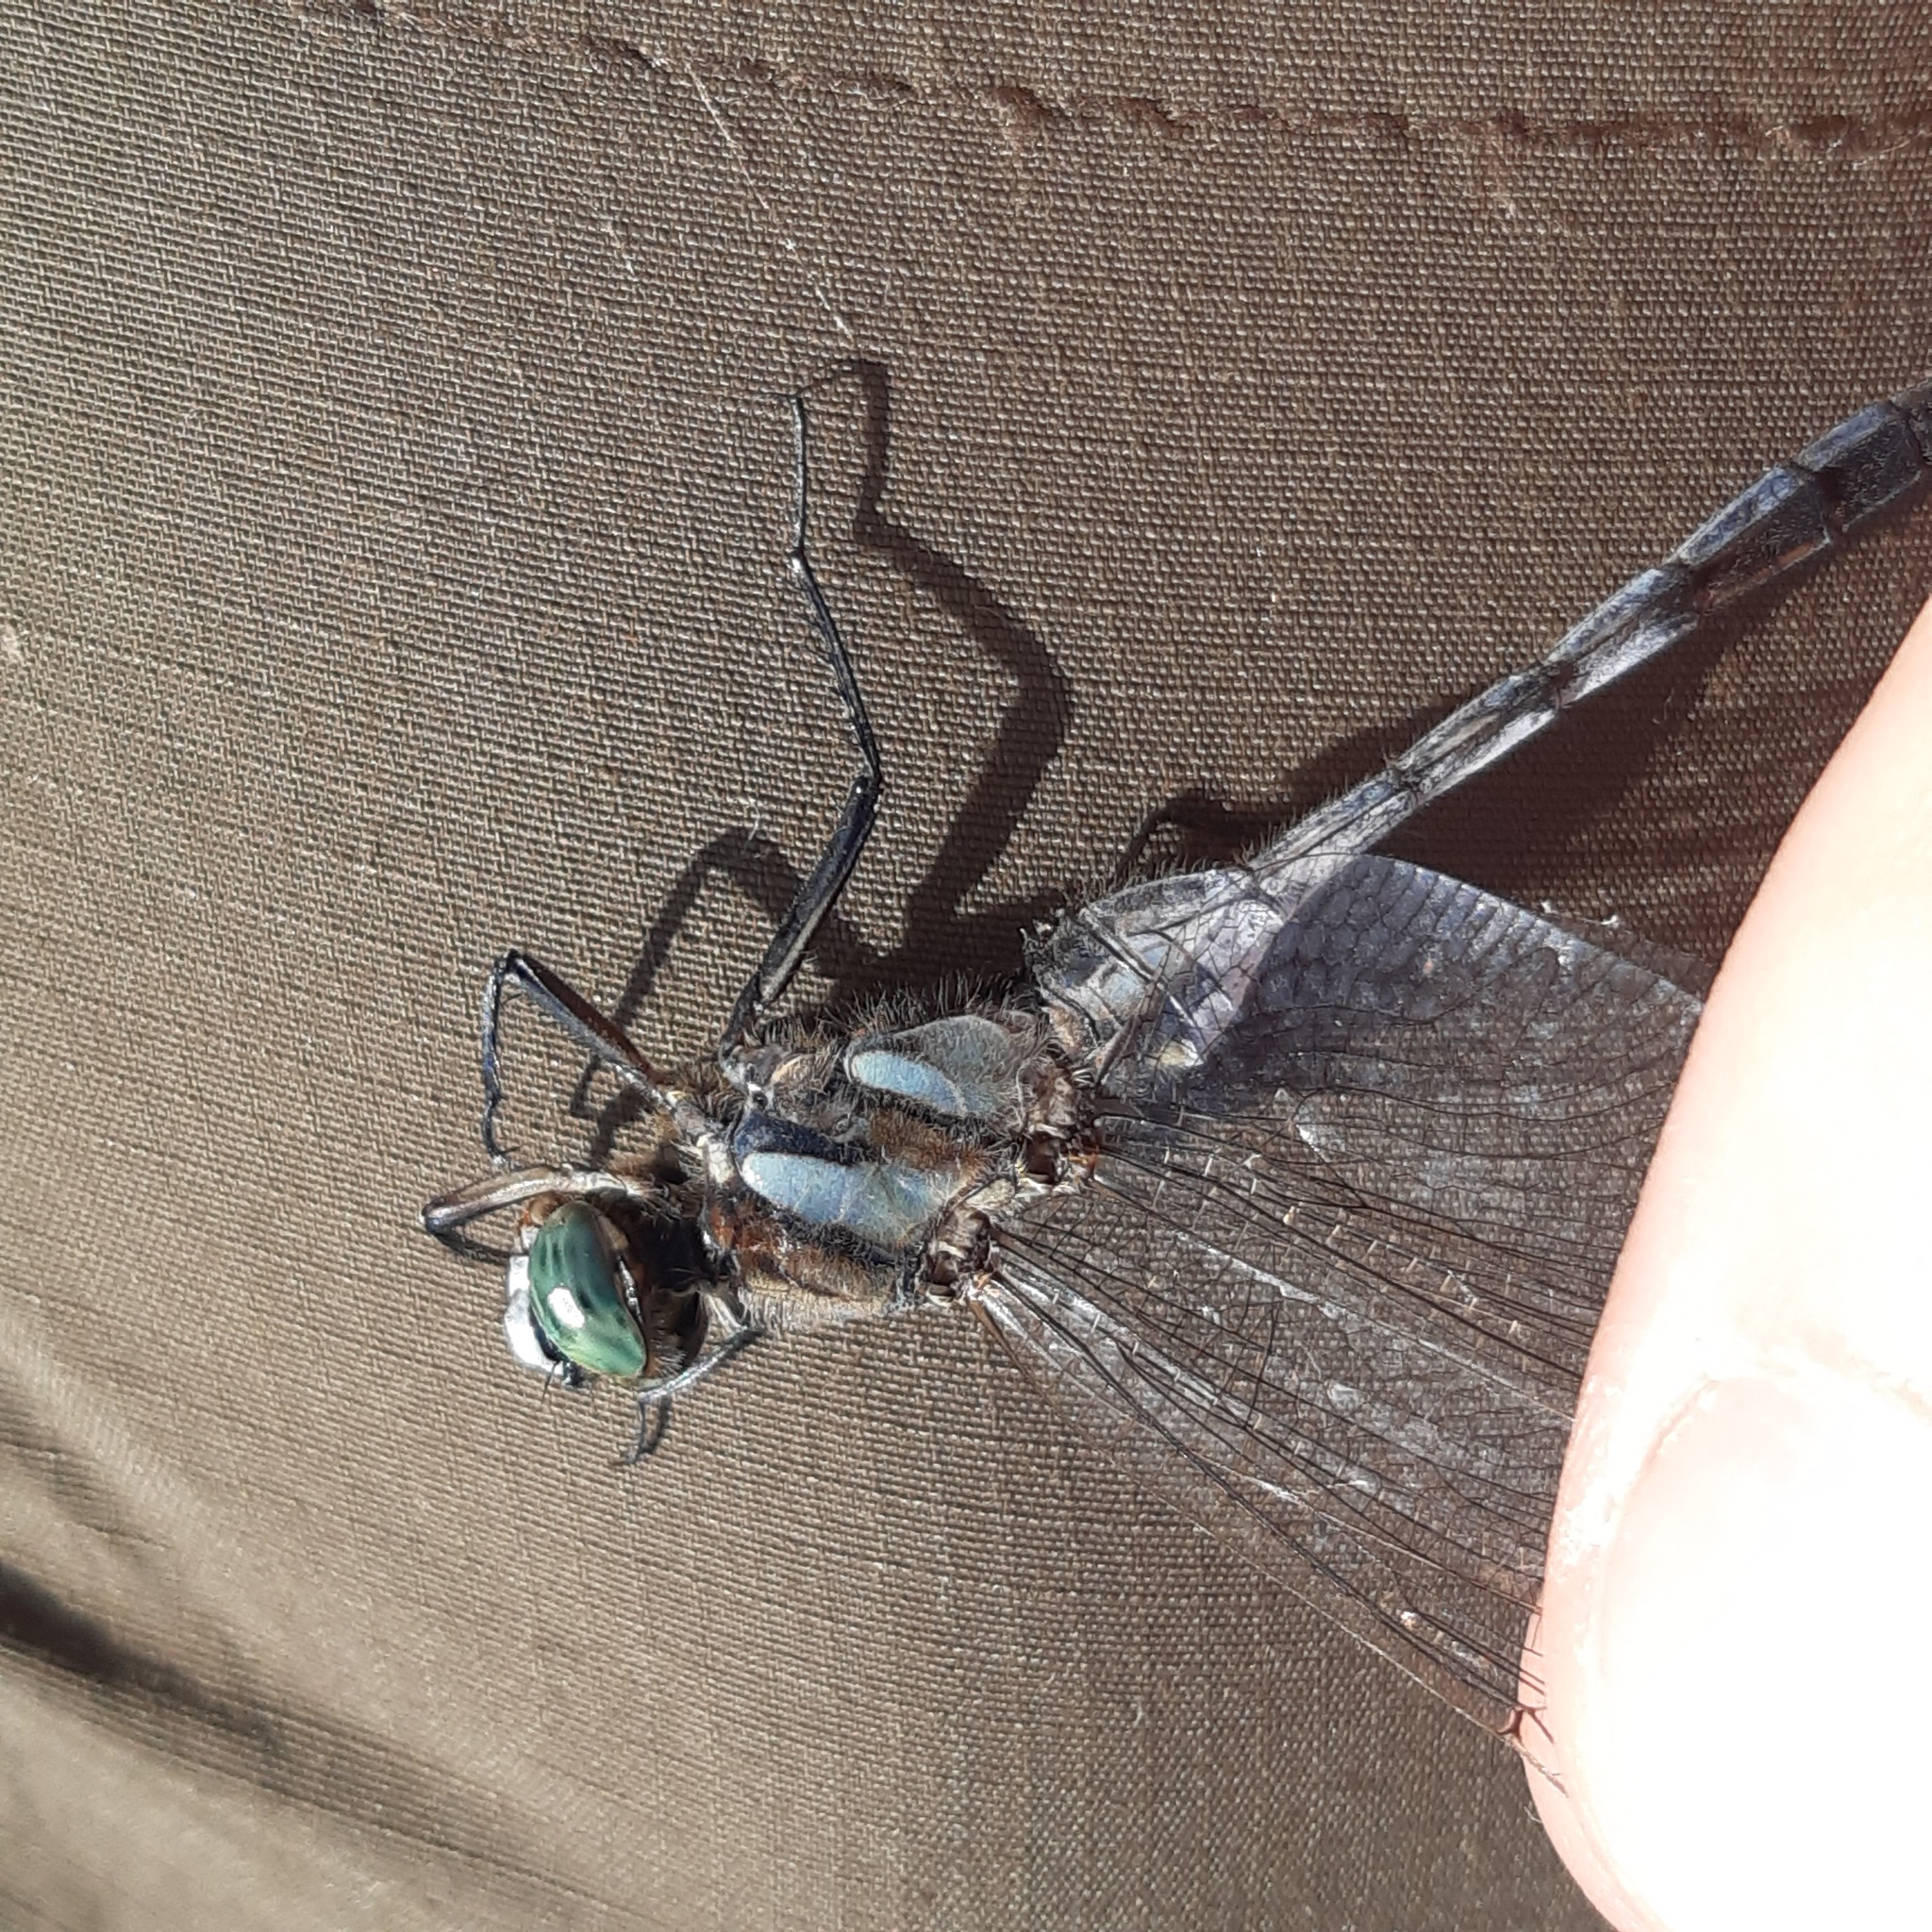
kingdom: Animalia
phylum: Arthropoda
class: Insecta
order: Odonata
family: Libellulidae
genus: Orthetrum
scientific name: Orthetrum albistylum
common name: White-tailed skimmer
